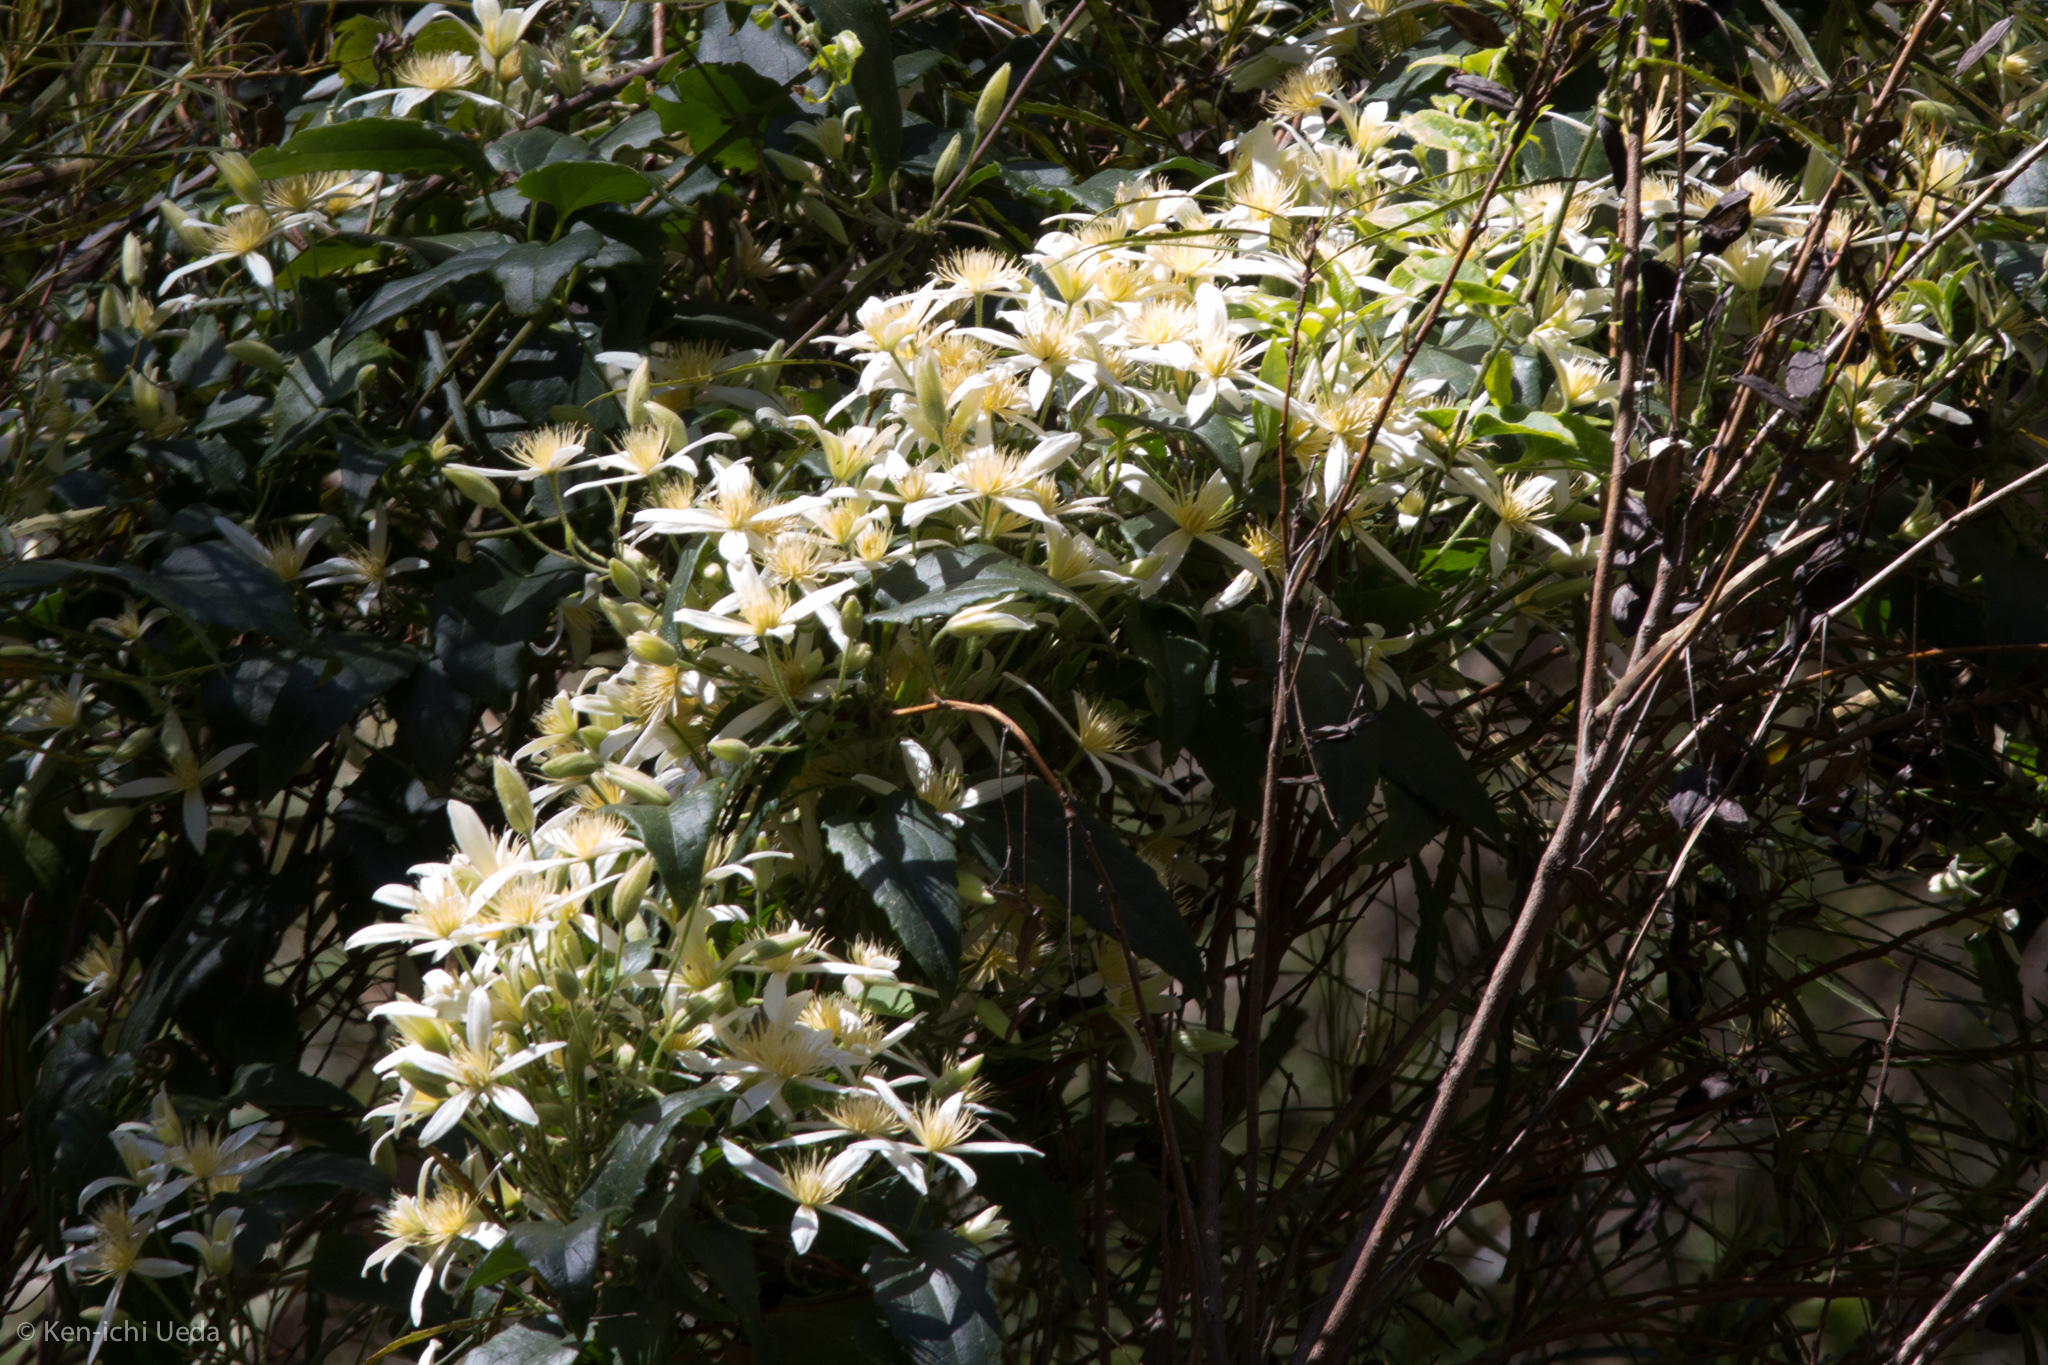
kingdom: Plantae
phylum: Tracheophyta
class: Magnoliopsida
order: Ranunculales
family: Ranunculaceae
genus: Clematis
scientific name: Clematis aristata
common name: Mountain clematis
